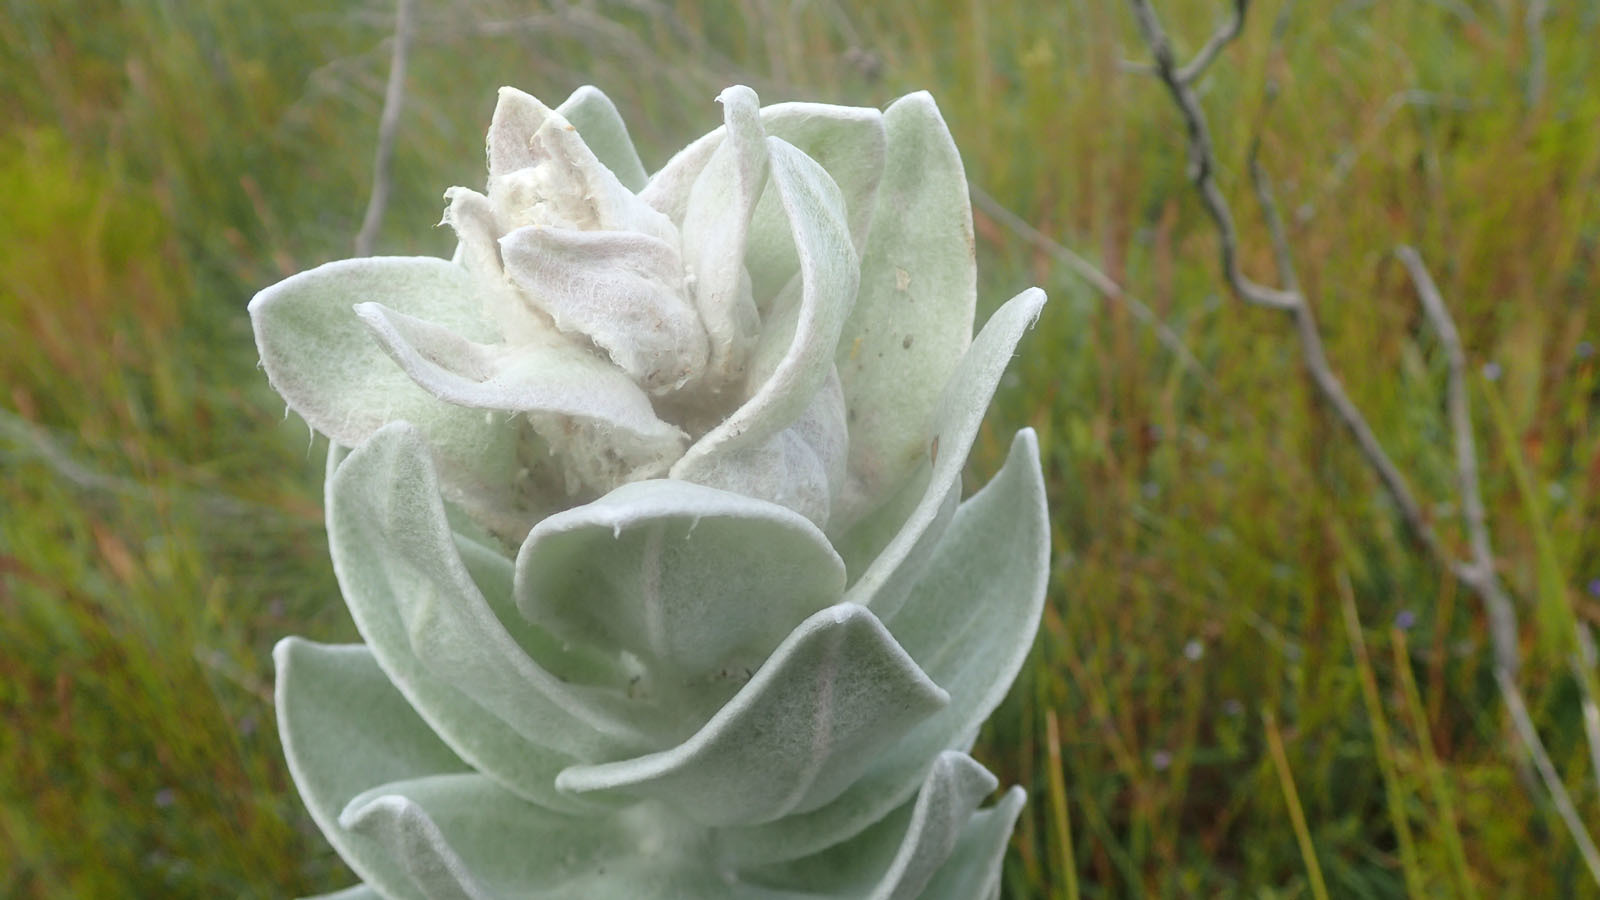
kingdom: Plantae
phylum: Tracheophyta
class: Magnoliopsida
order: Asterales
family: Asteraceae
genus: Syncarpha
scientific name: Syncarpha milleflora
